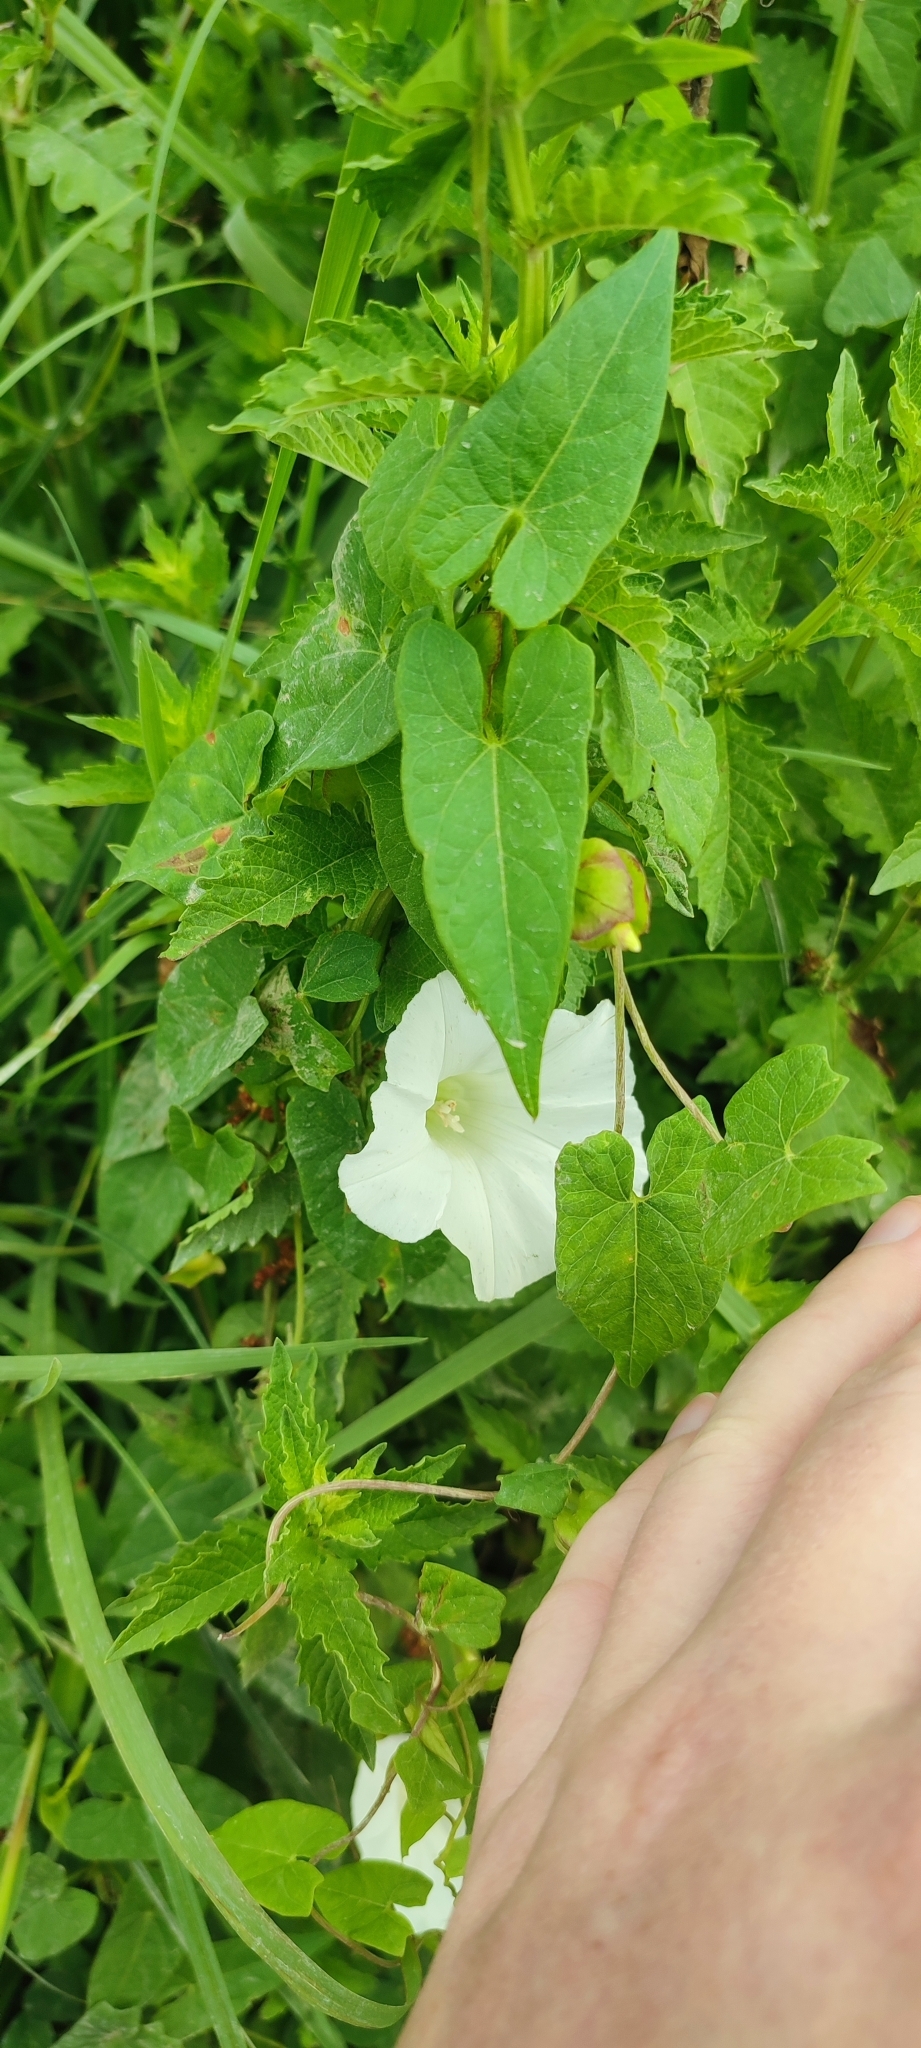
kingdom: Plantae
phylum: Tracheophyta
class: Magnoliopsida
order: Solanales
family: Convolvulaceae
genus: Calystegia
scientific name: Calystegia sepium
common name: Hedge bindweed
